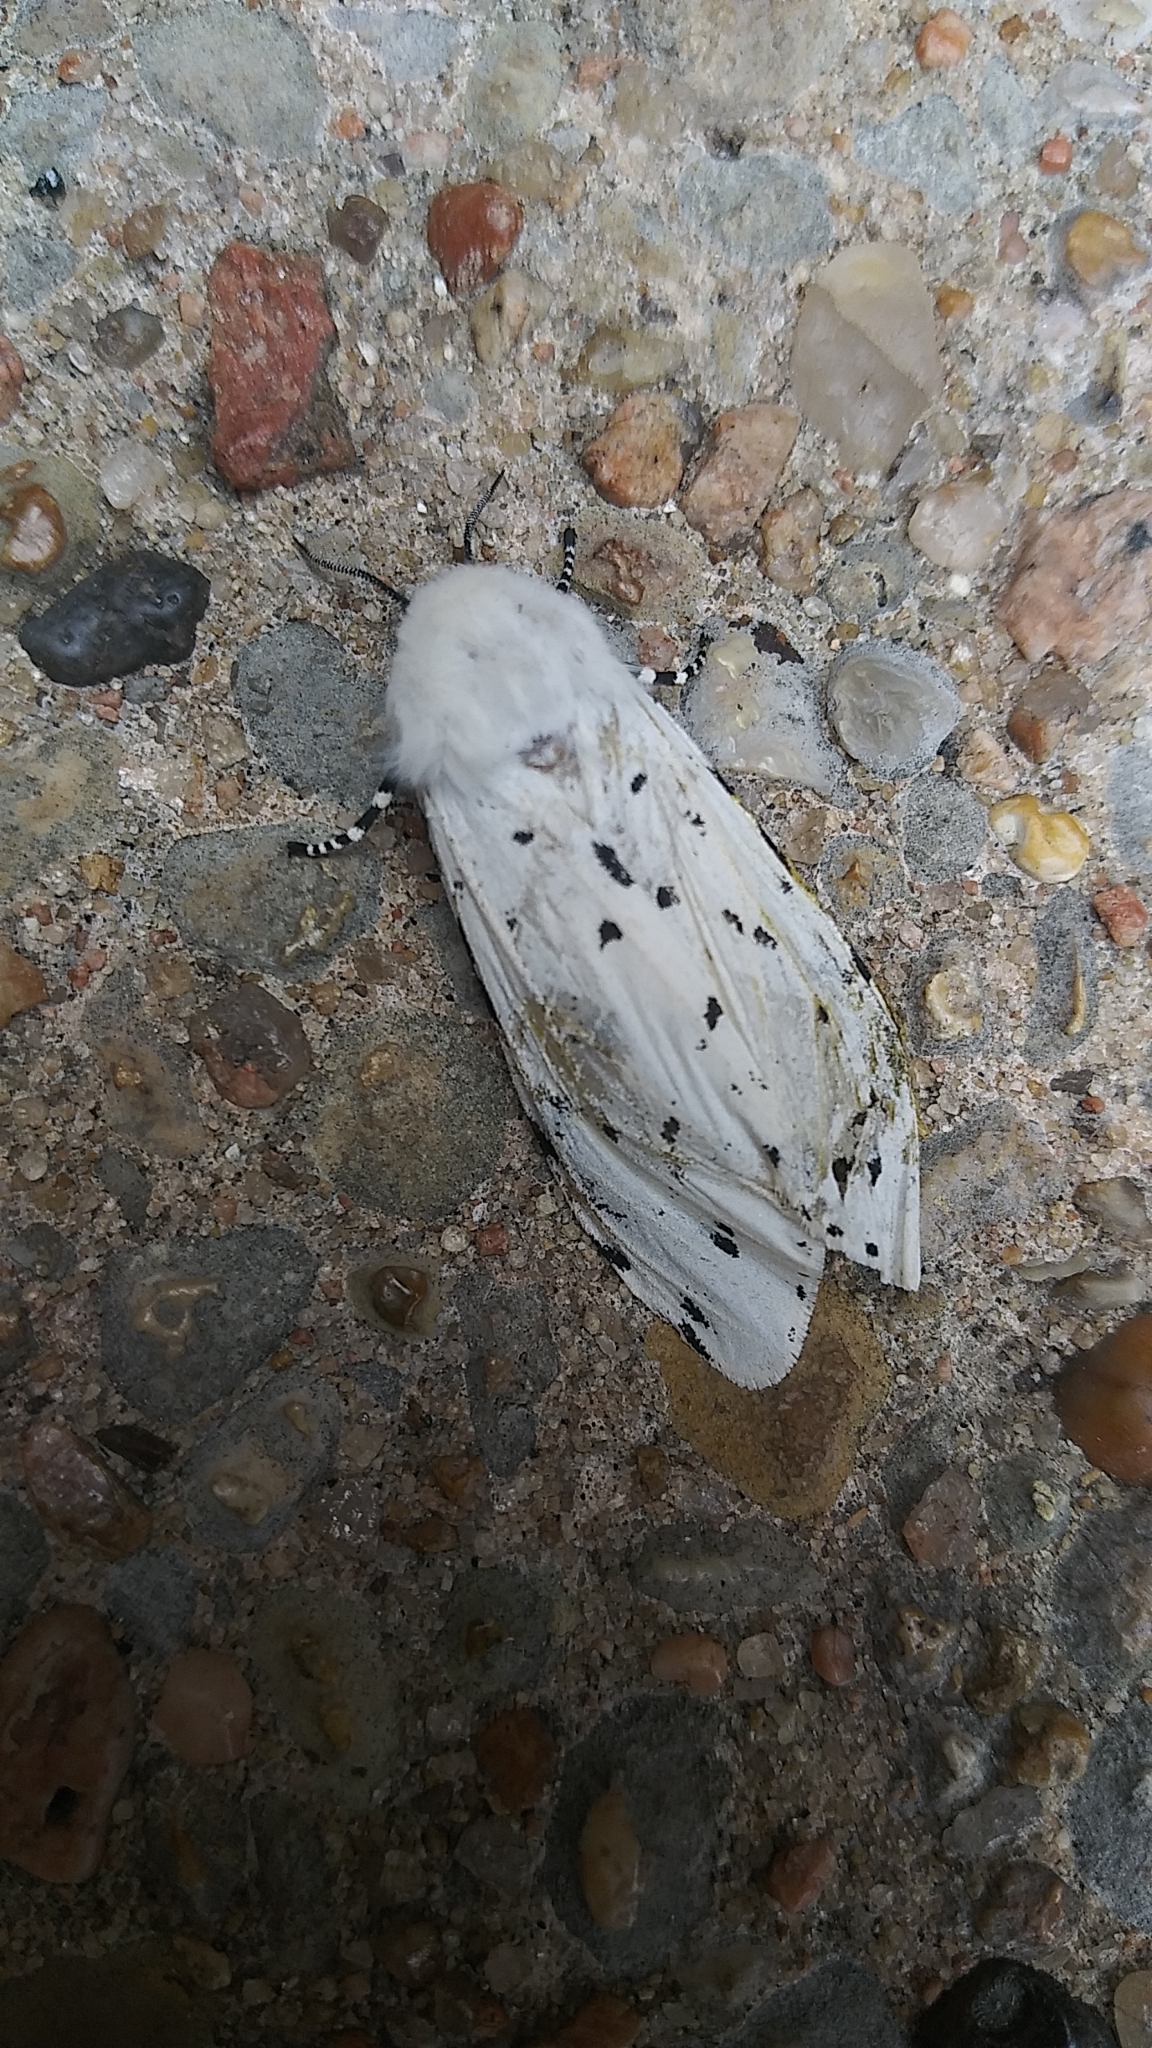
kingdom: Animalia
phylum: Arthropoda
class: Insecta
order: Lepidoptera
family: Erebidae
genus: Estigmene
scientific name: Estigmene acrea
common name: Salt marsh moth
